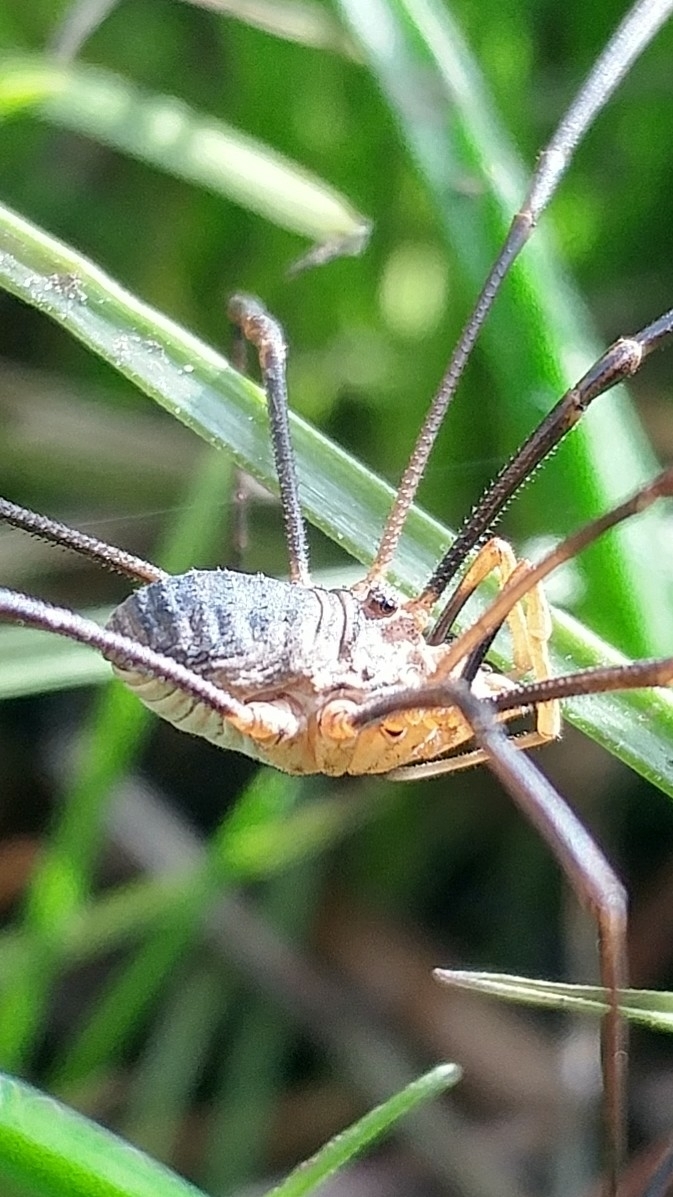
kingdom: Animalia
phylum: Arthropoda
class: Arachnida
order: Opiliones
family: Phalangiidae
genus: Phalangium
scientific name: Phalangium opilio
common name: Daddy longleg
